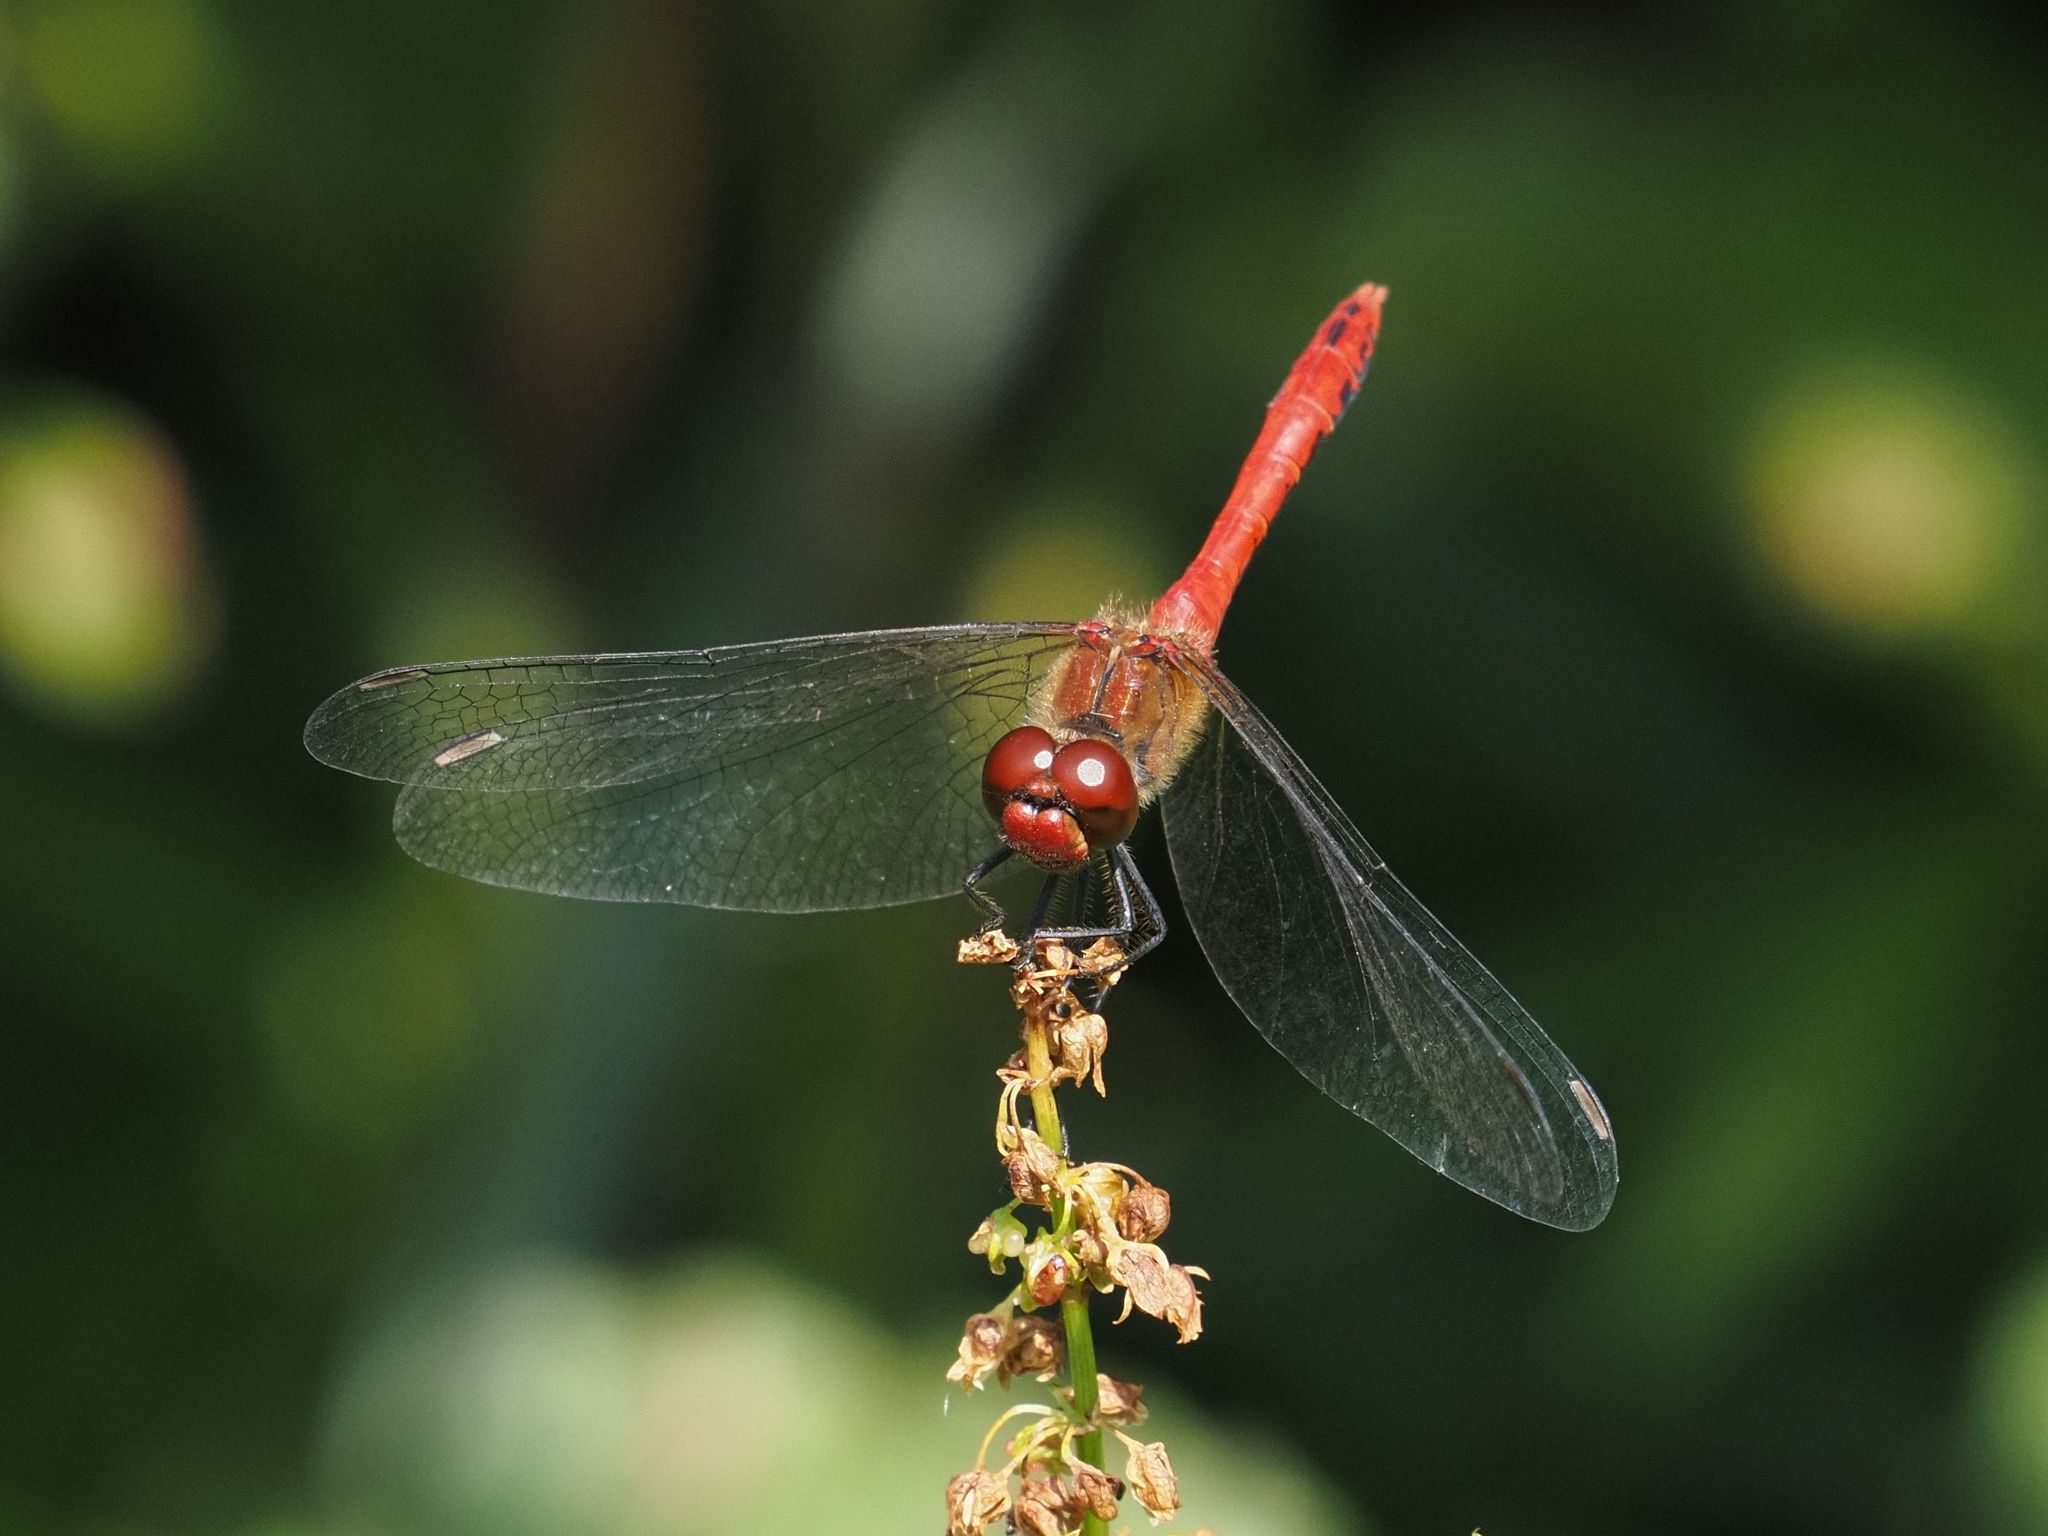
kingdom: Animalia
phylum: Arthropoda
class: Insecta
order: Odonata
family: Libellulidae
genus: Sympetrum
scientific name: Sympetrum sanguineum
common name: Ruddy darter
